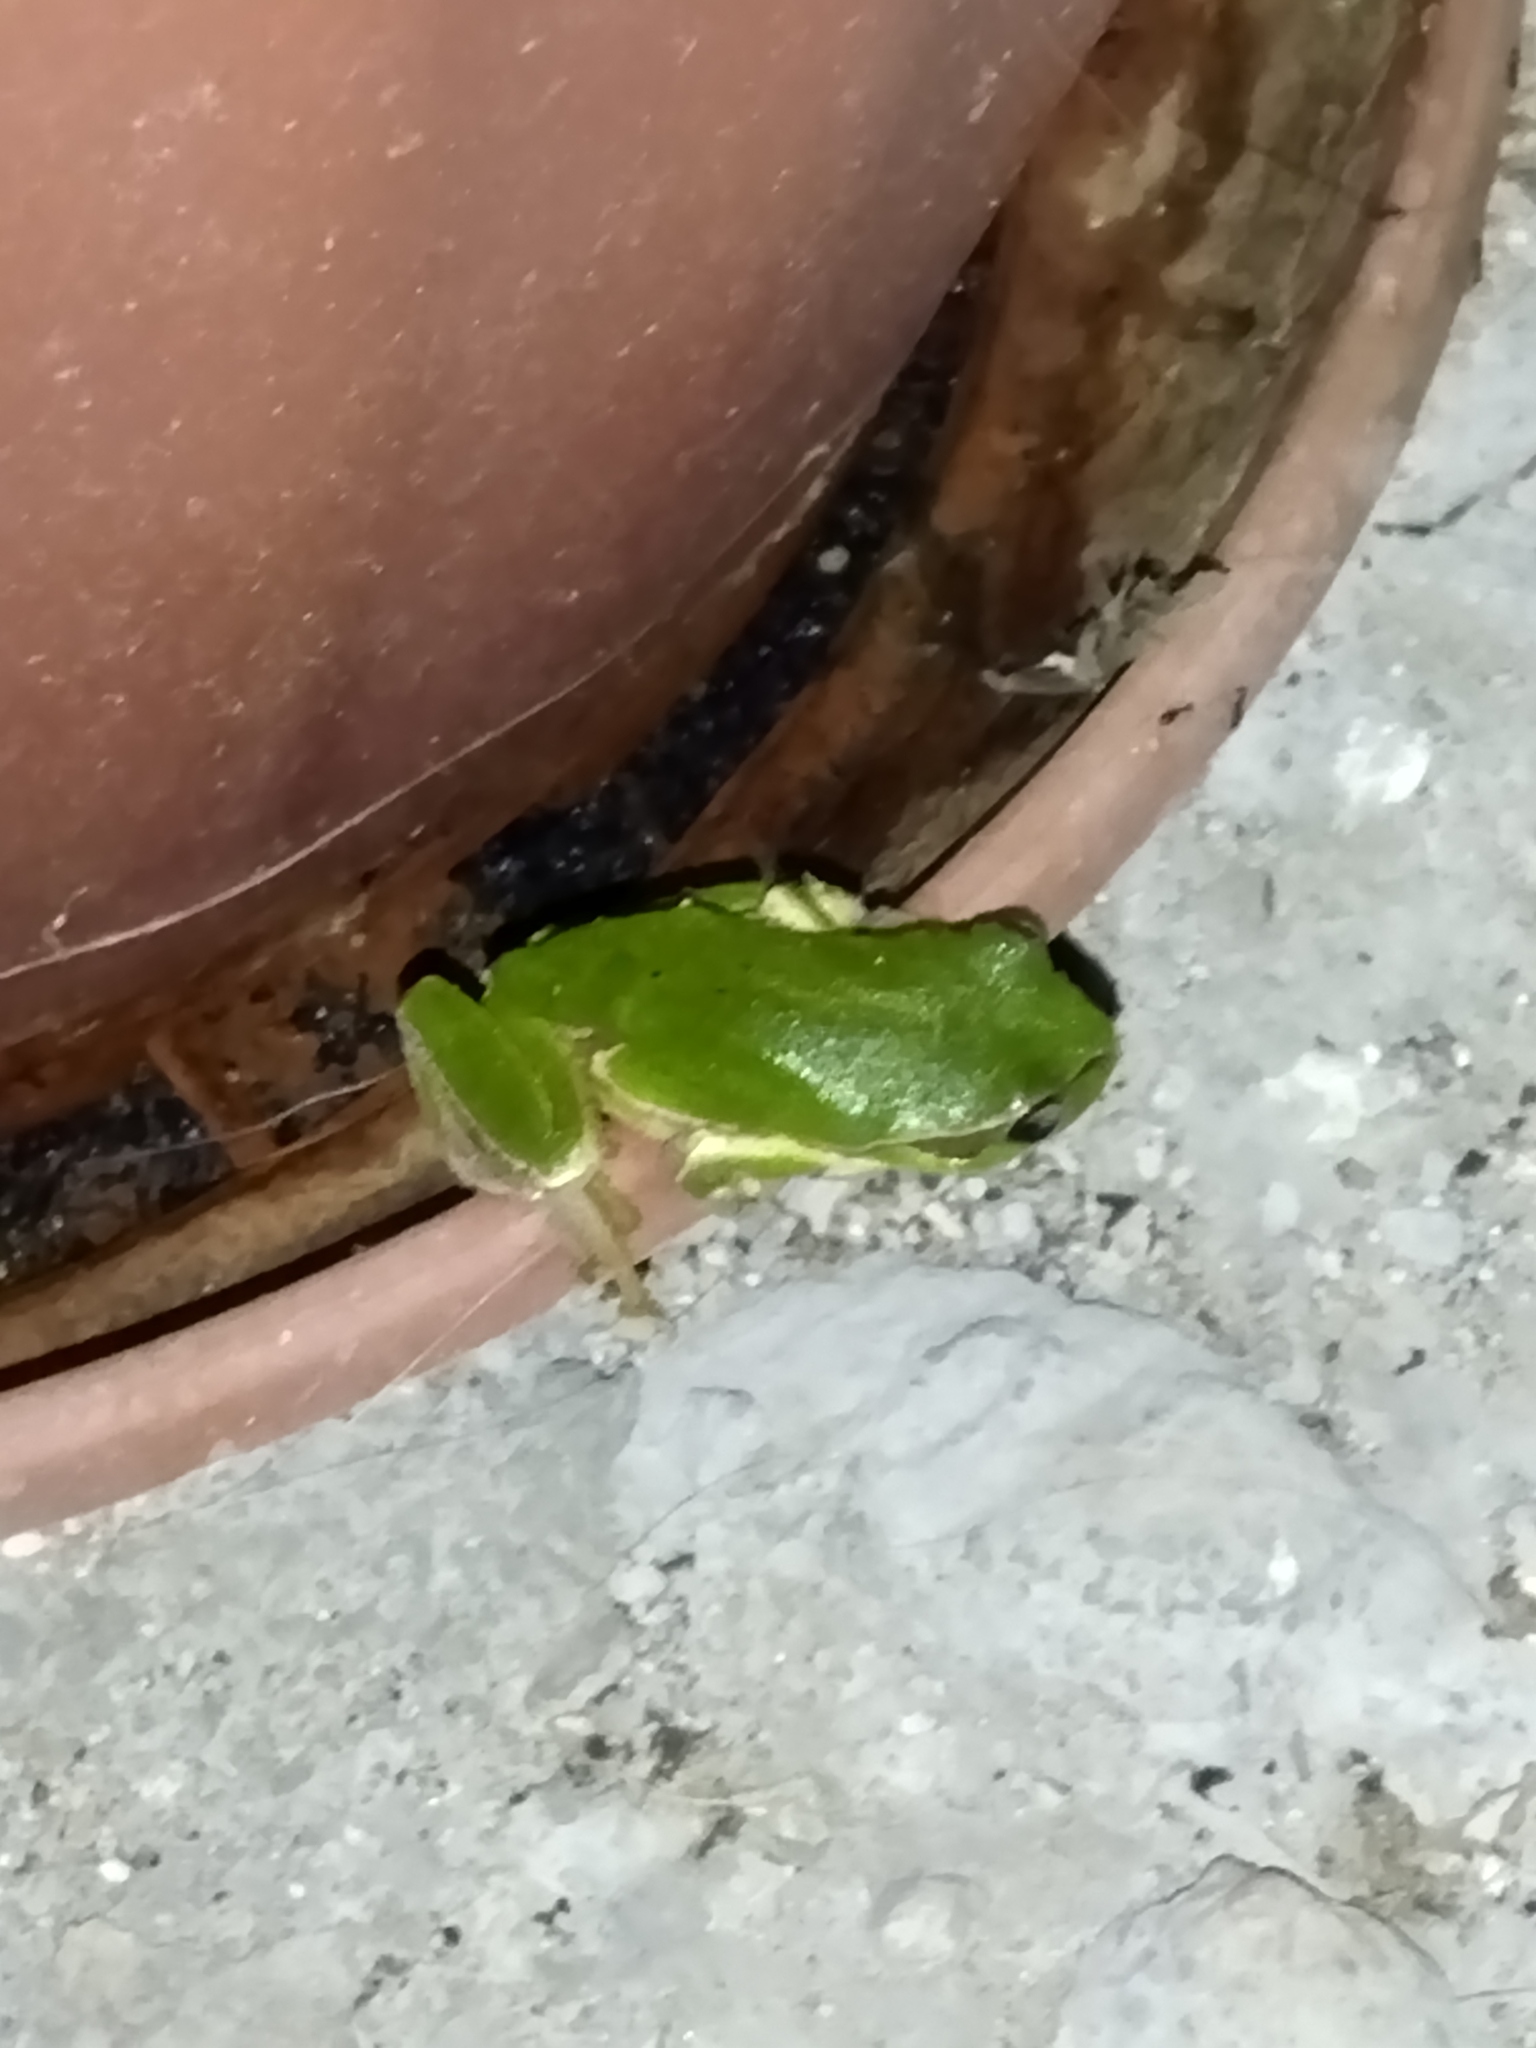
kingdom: Animalia
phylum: Chordata
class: Amphibia
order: Anura
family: Hylidae
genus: Hyla
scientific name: Hyla orientalis
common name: Caucasian treefrog
